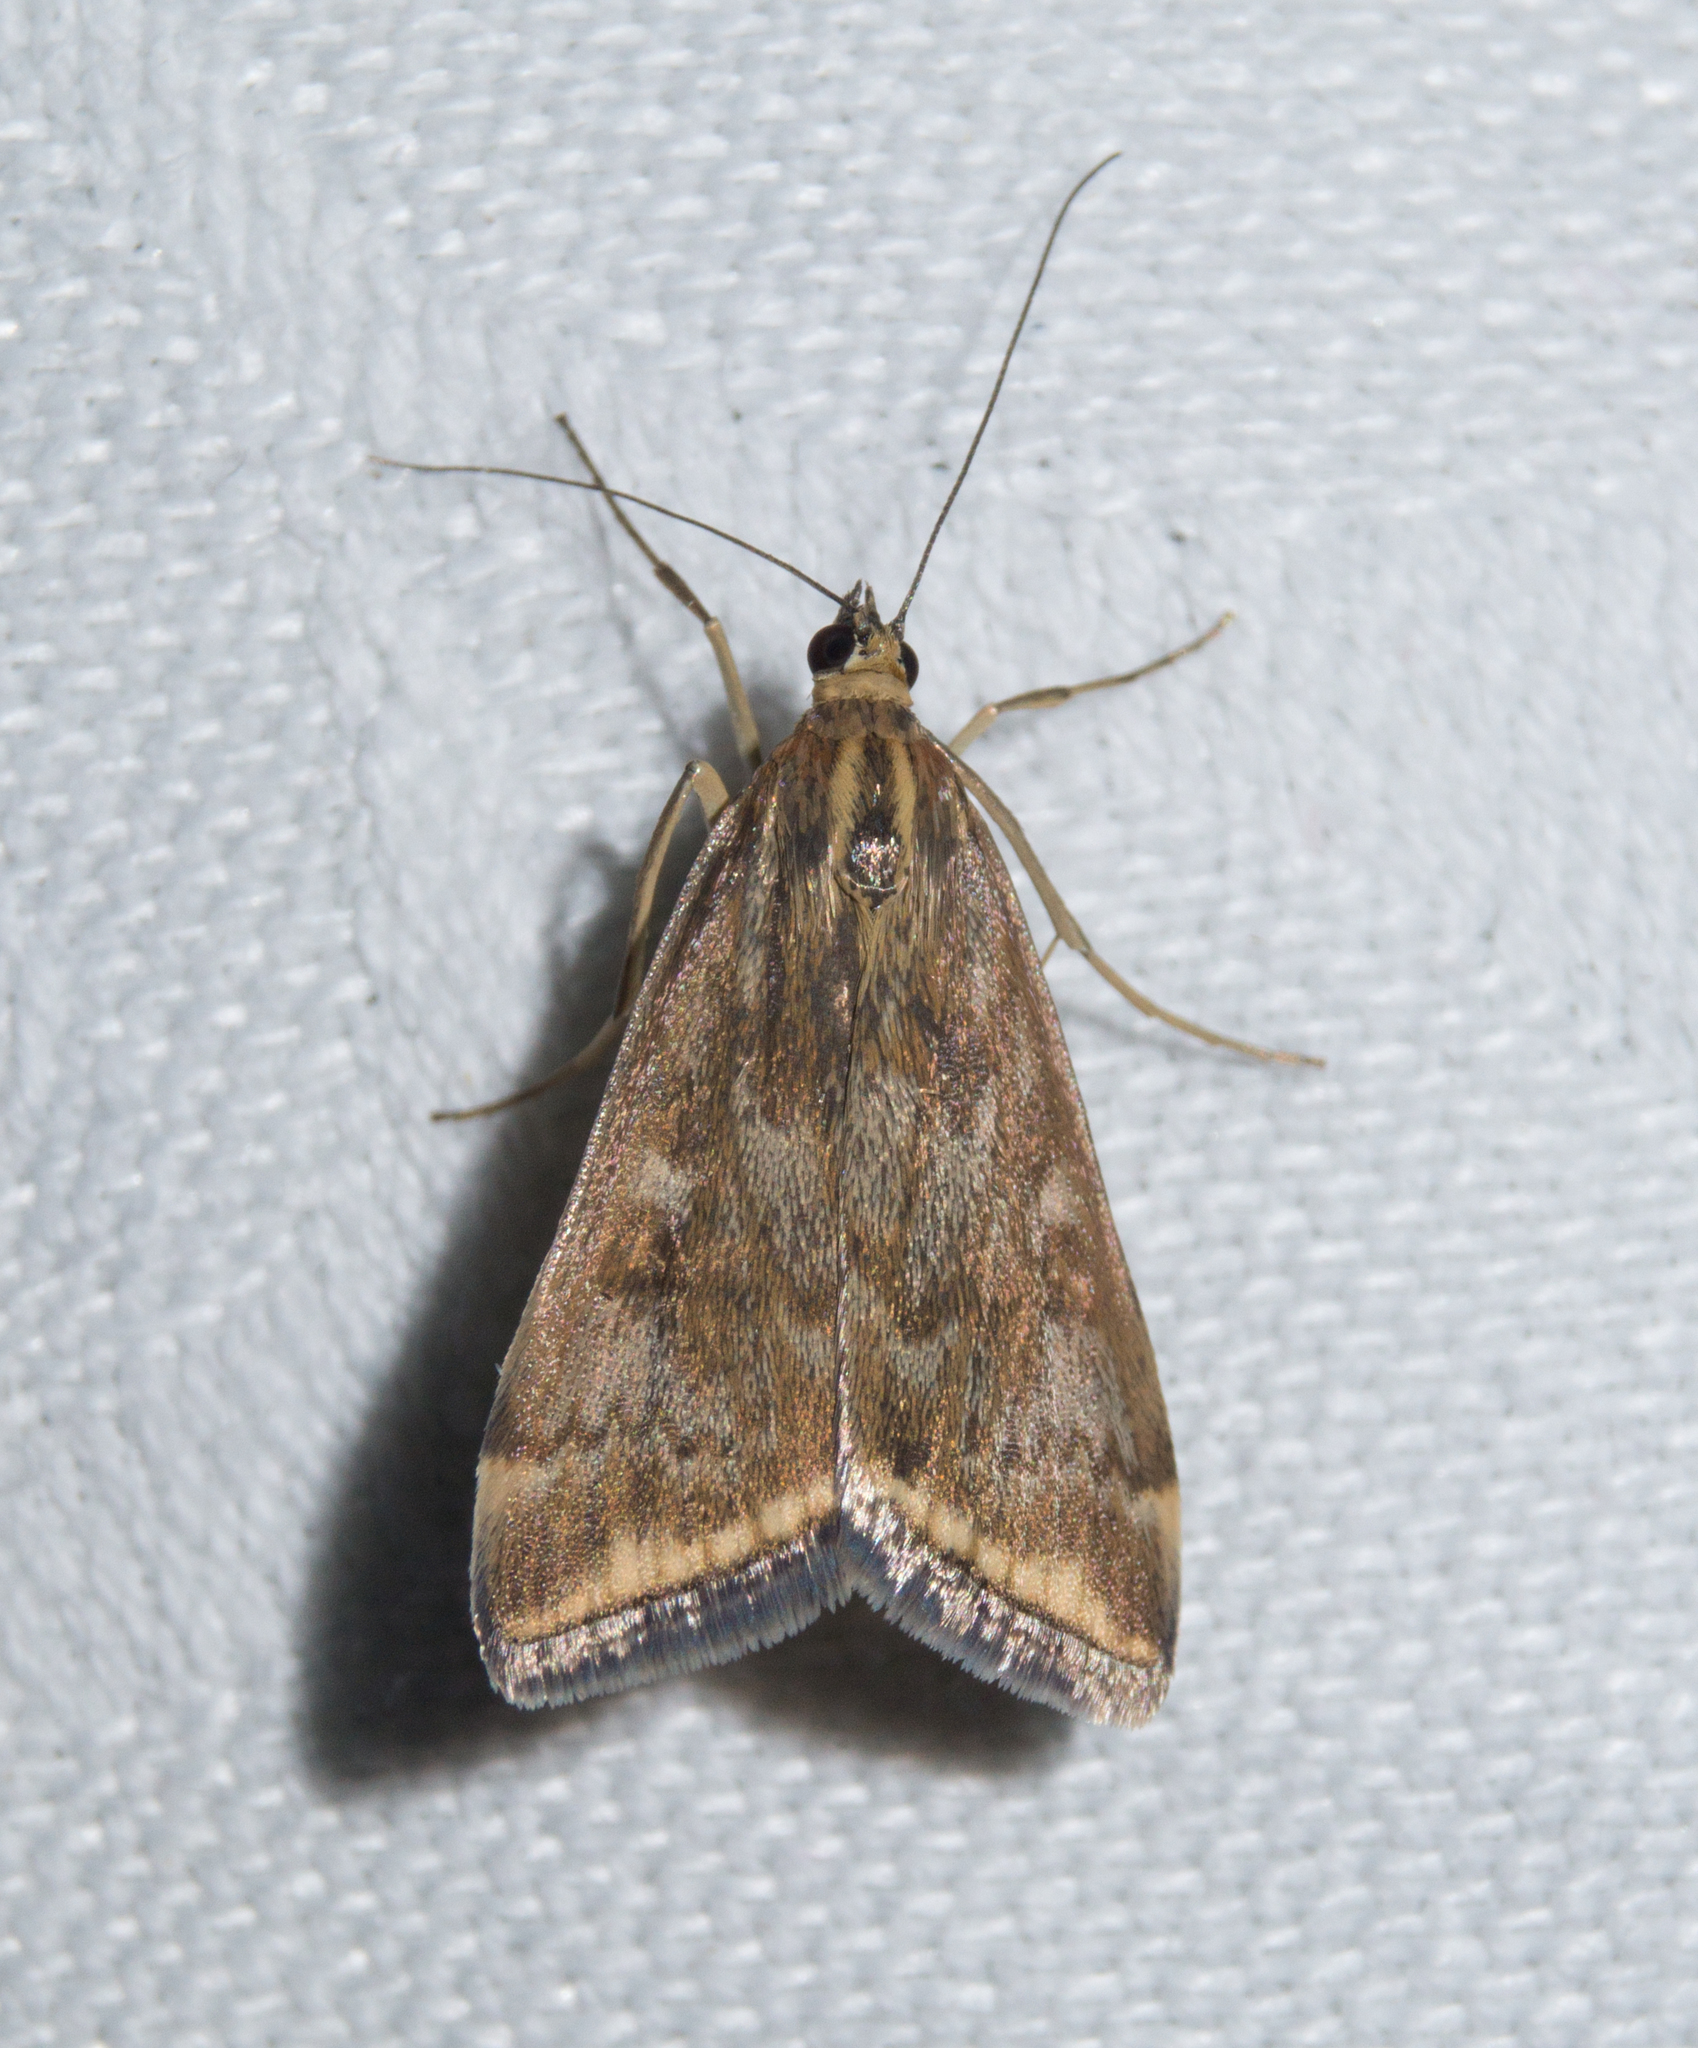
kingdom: Animalia
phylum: Arthropoda
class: Insecta
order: Lepidoptera
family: Crambidae
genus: Loxostege
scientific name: Loxostege sticticalis
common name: Crambid moth
